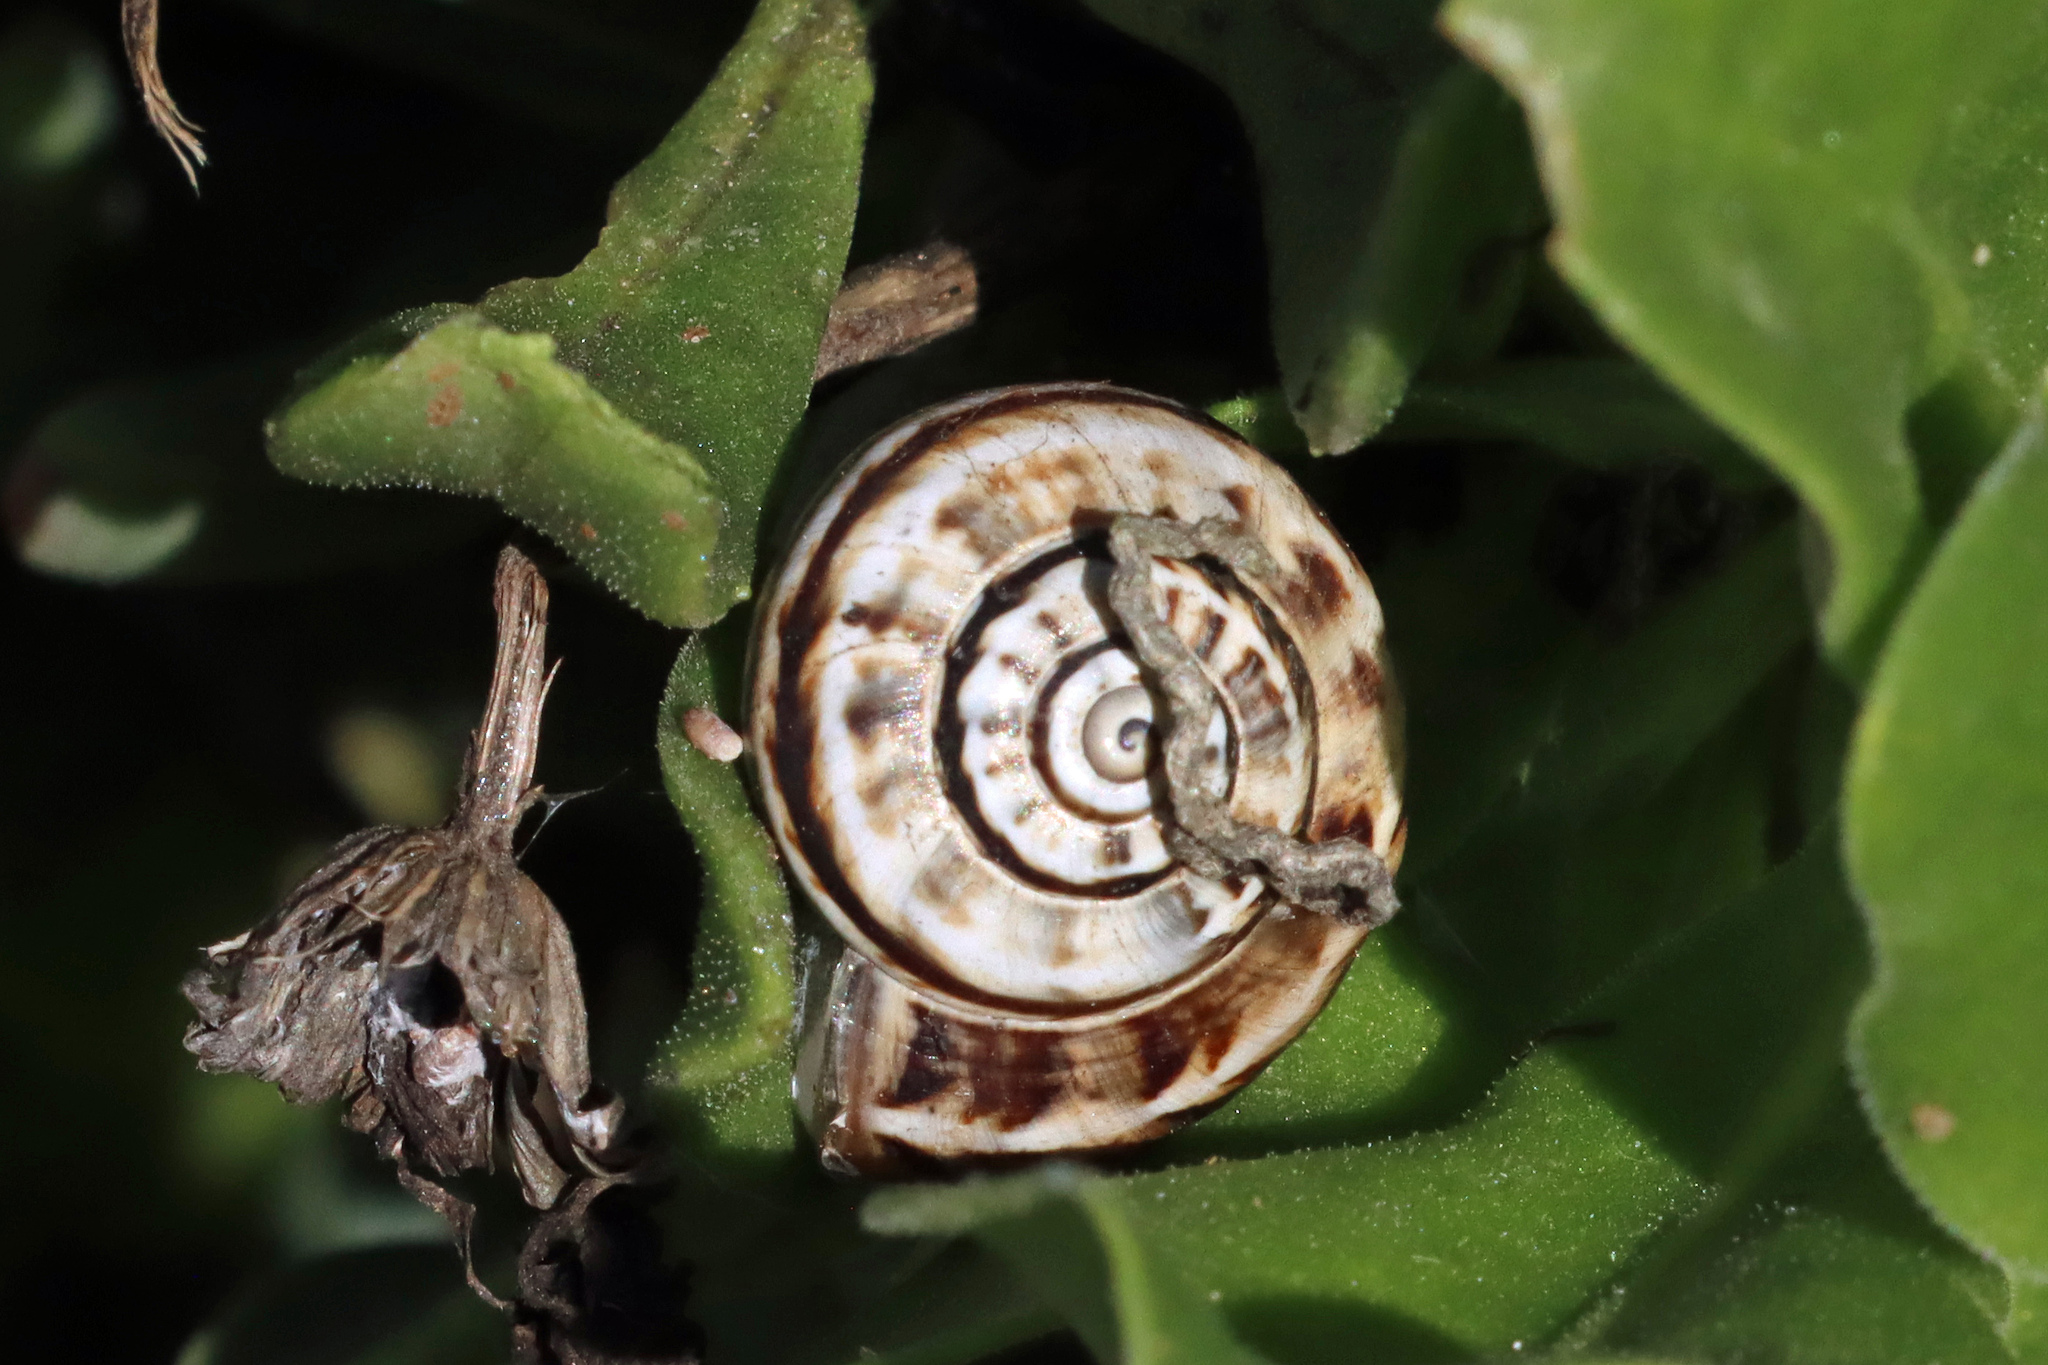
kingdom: Animalia
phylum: Mollusca
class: Gastropoda
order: Stylommatophora
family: Helicidae
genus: Theba
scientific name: Theba pisana
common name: White snail
